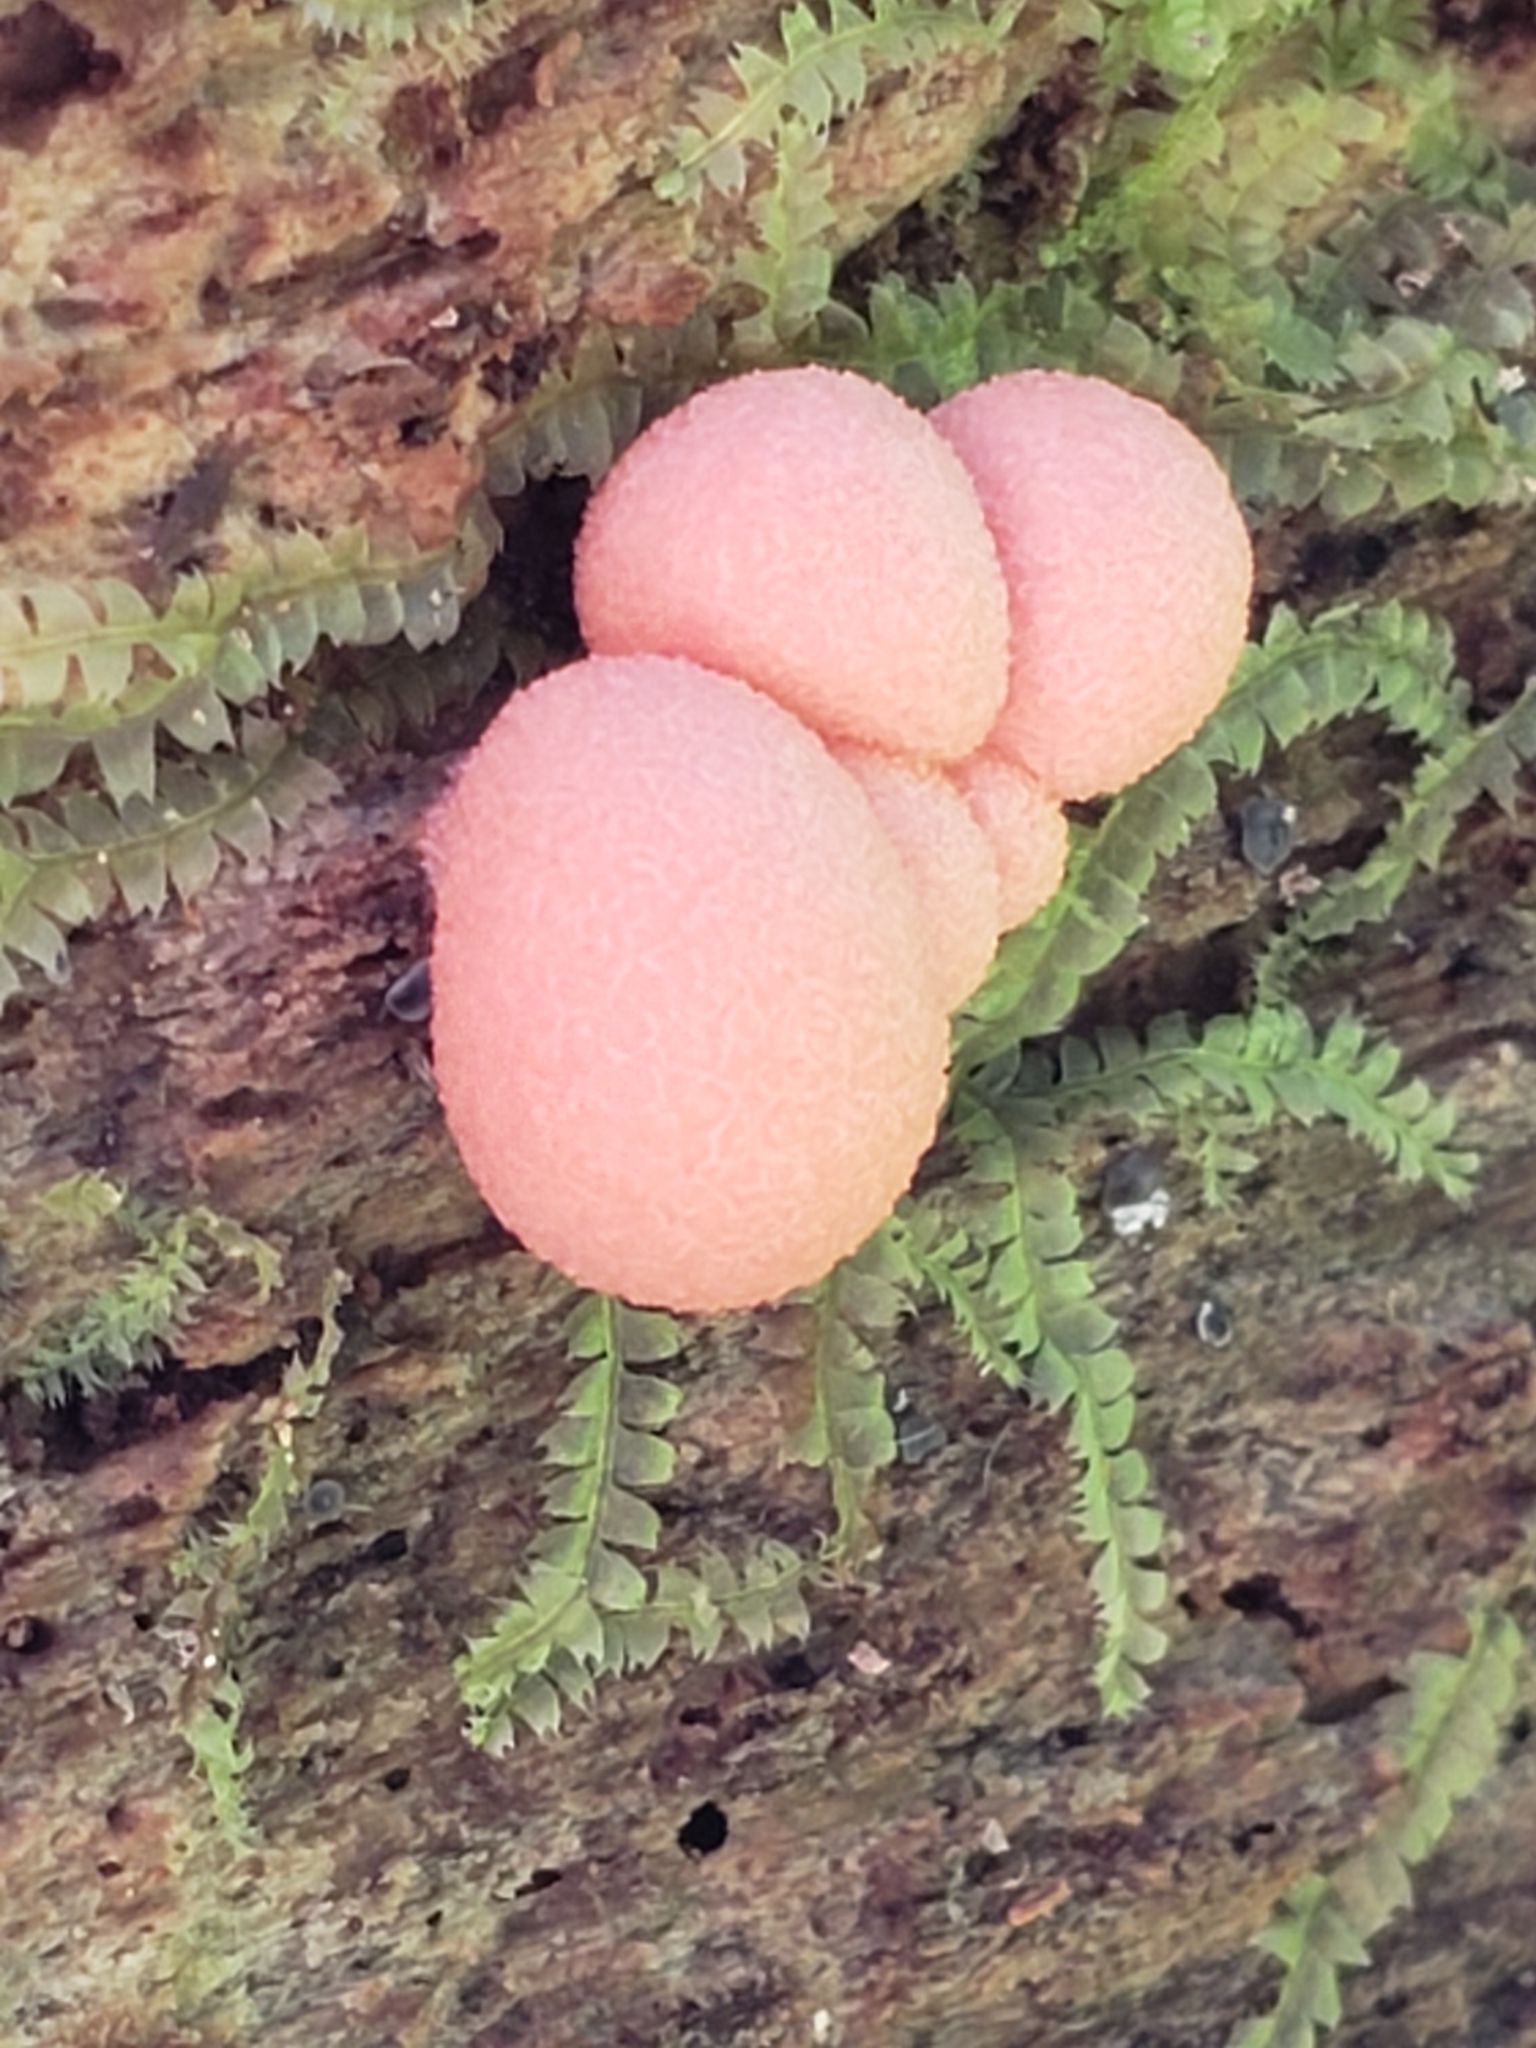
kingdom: Protozoa
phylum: Mycetozoa
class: Myxomycetes
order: Cribrariales
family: Tubiferaceae
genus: Lycogala
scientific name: Lycogala epidendrum
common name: Wolf's milk
